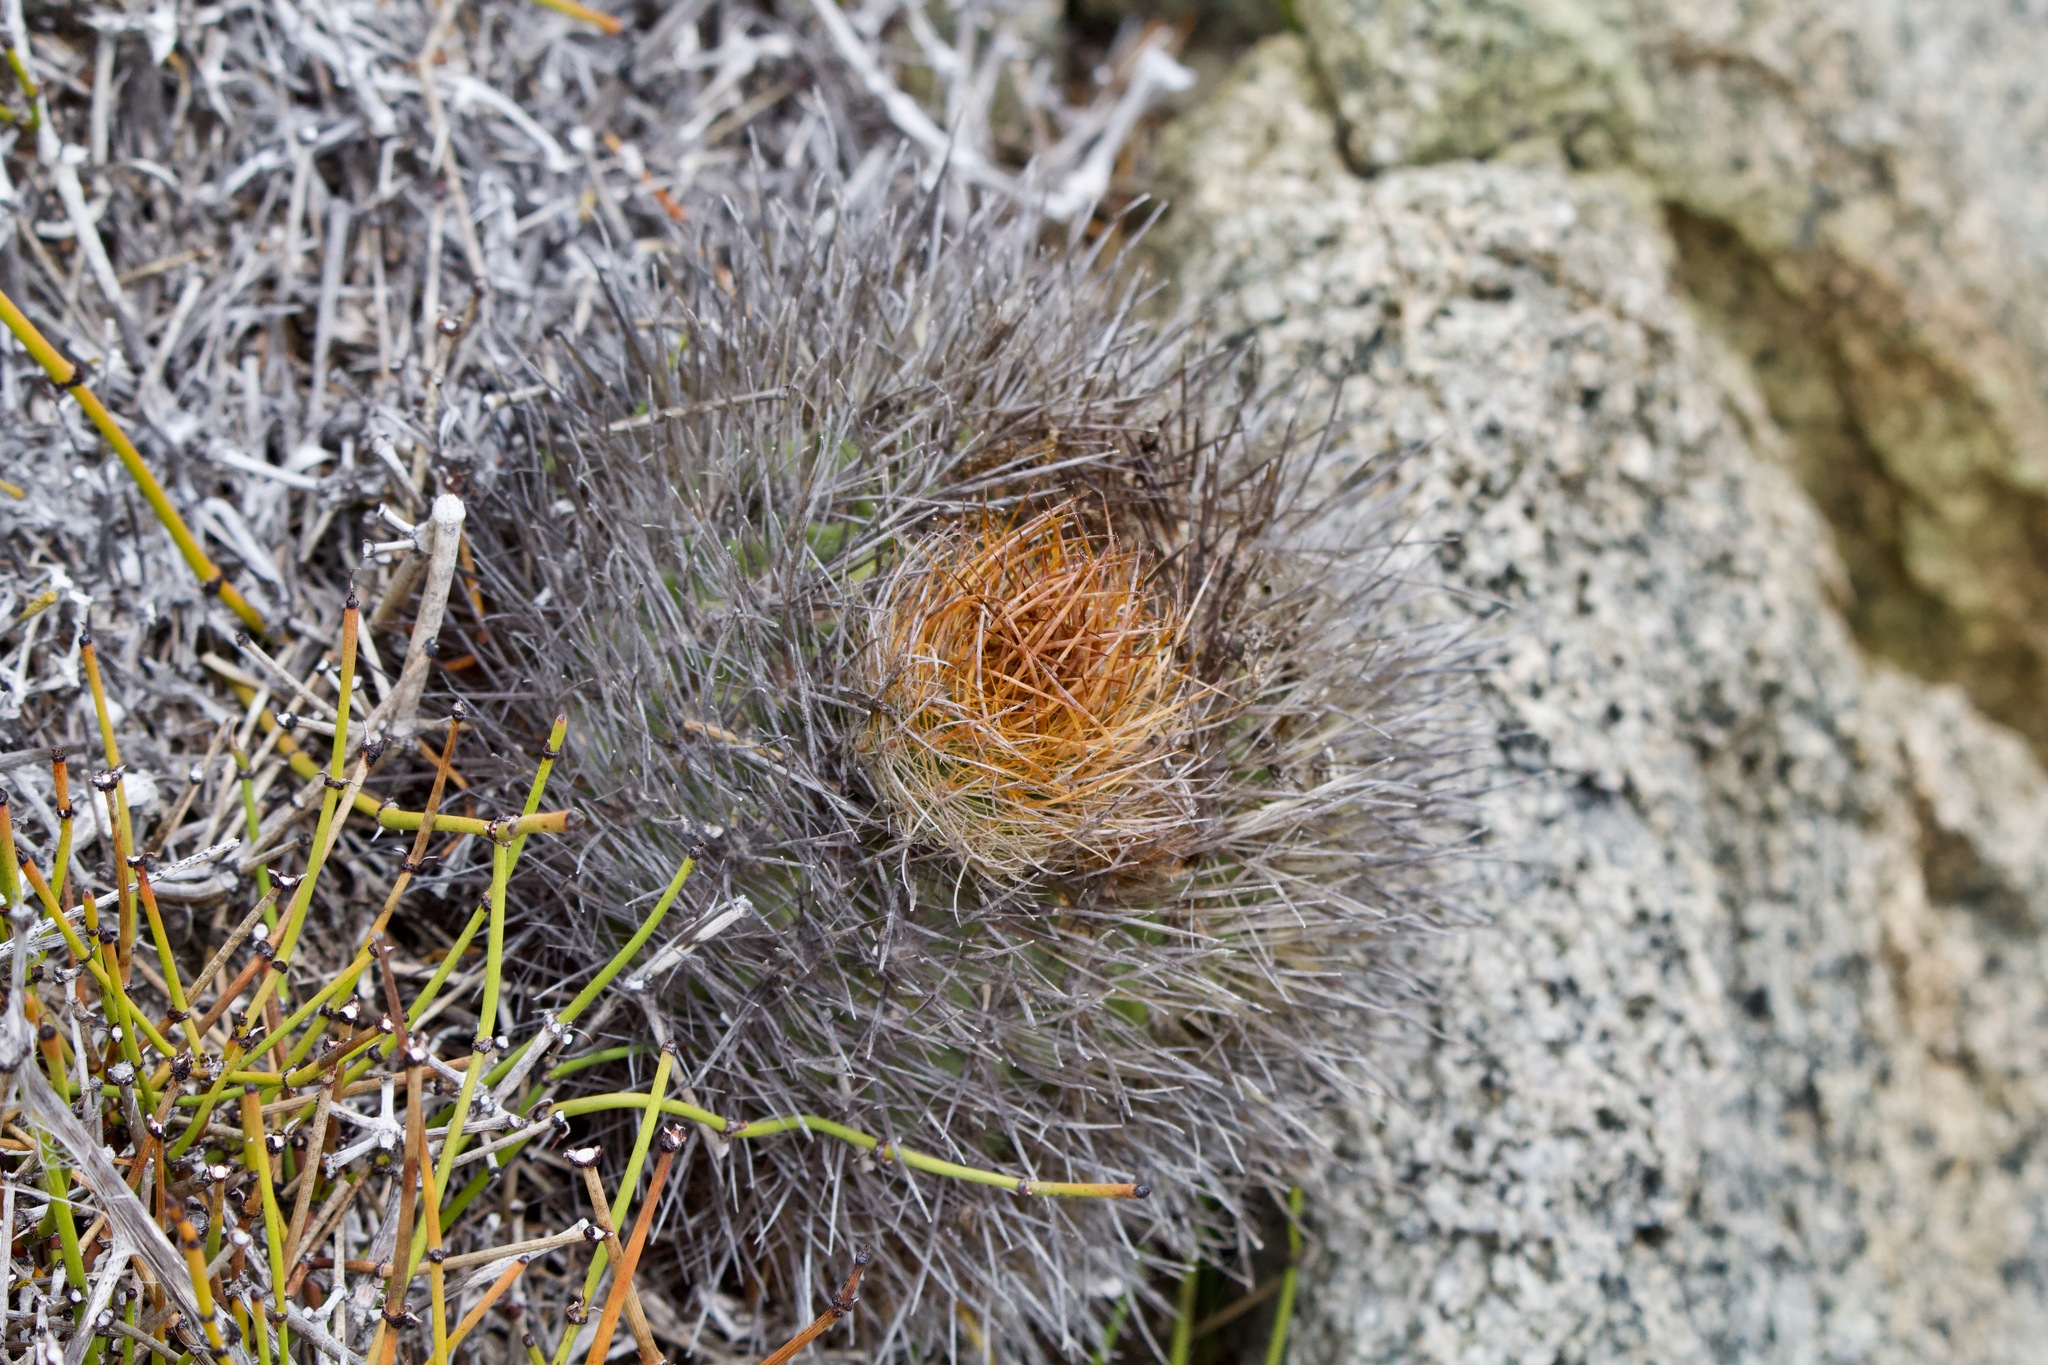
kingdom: Plantae
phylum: Tracheophyta
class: Magnoliopsida
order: Caryophyllales
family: Cactaceae
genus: Eriosyce
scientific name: Eriosyce subgibbosa
